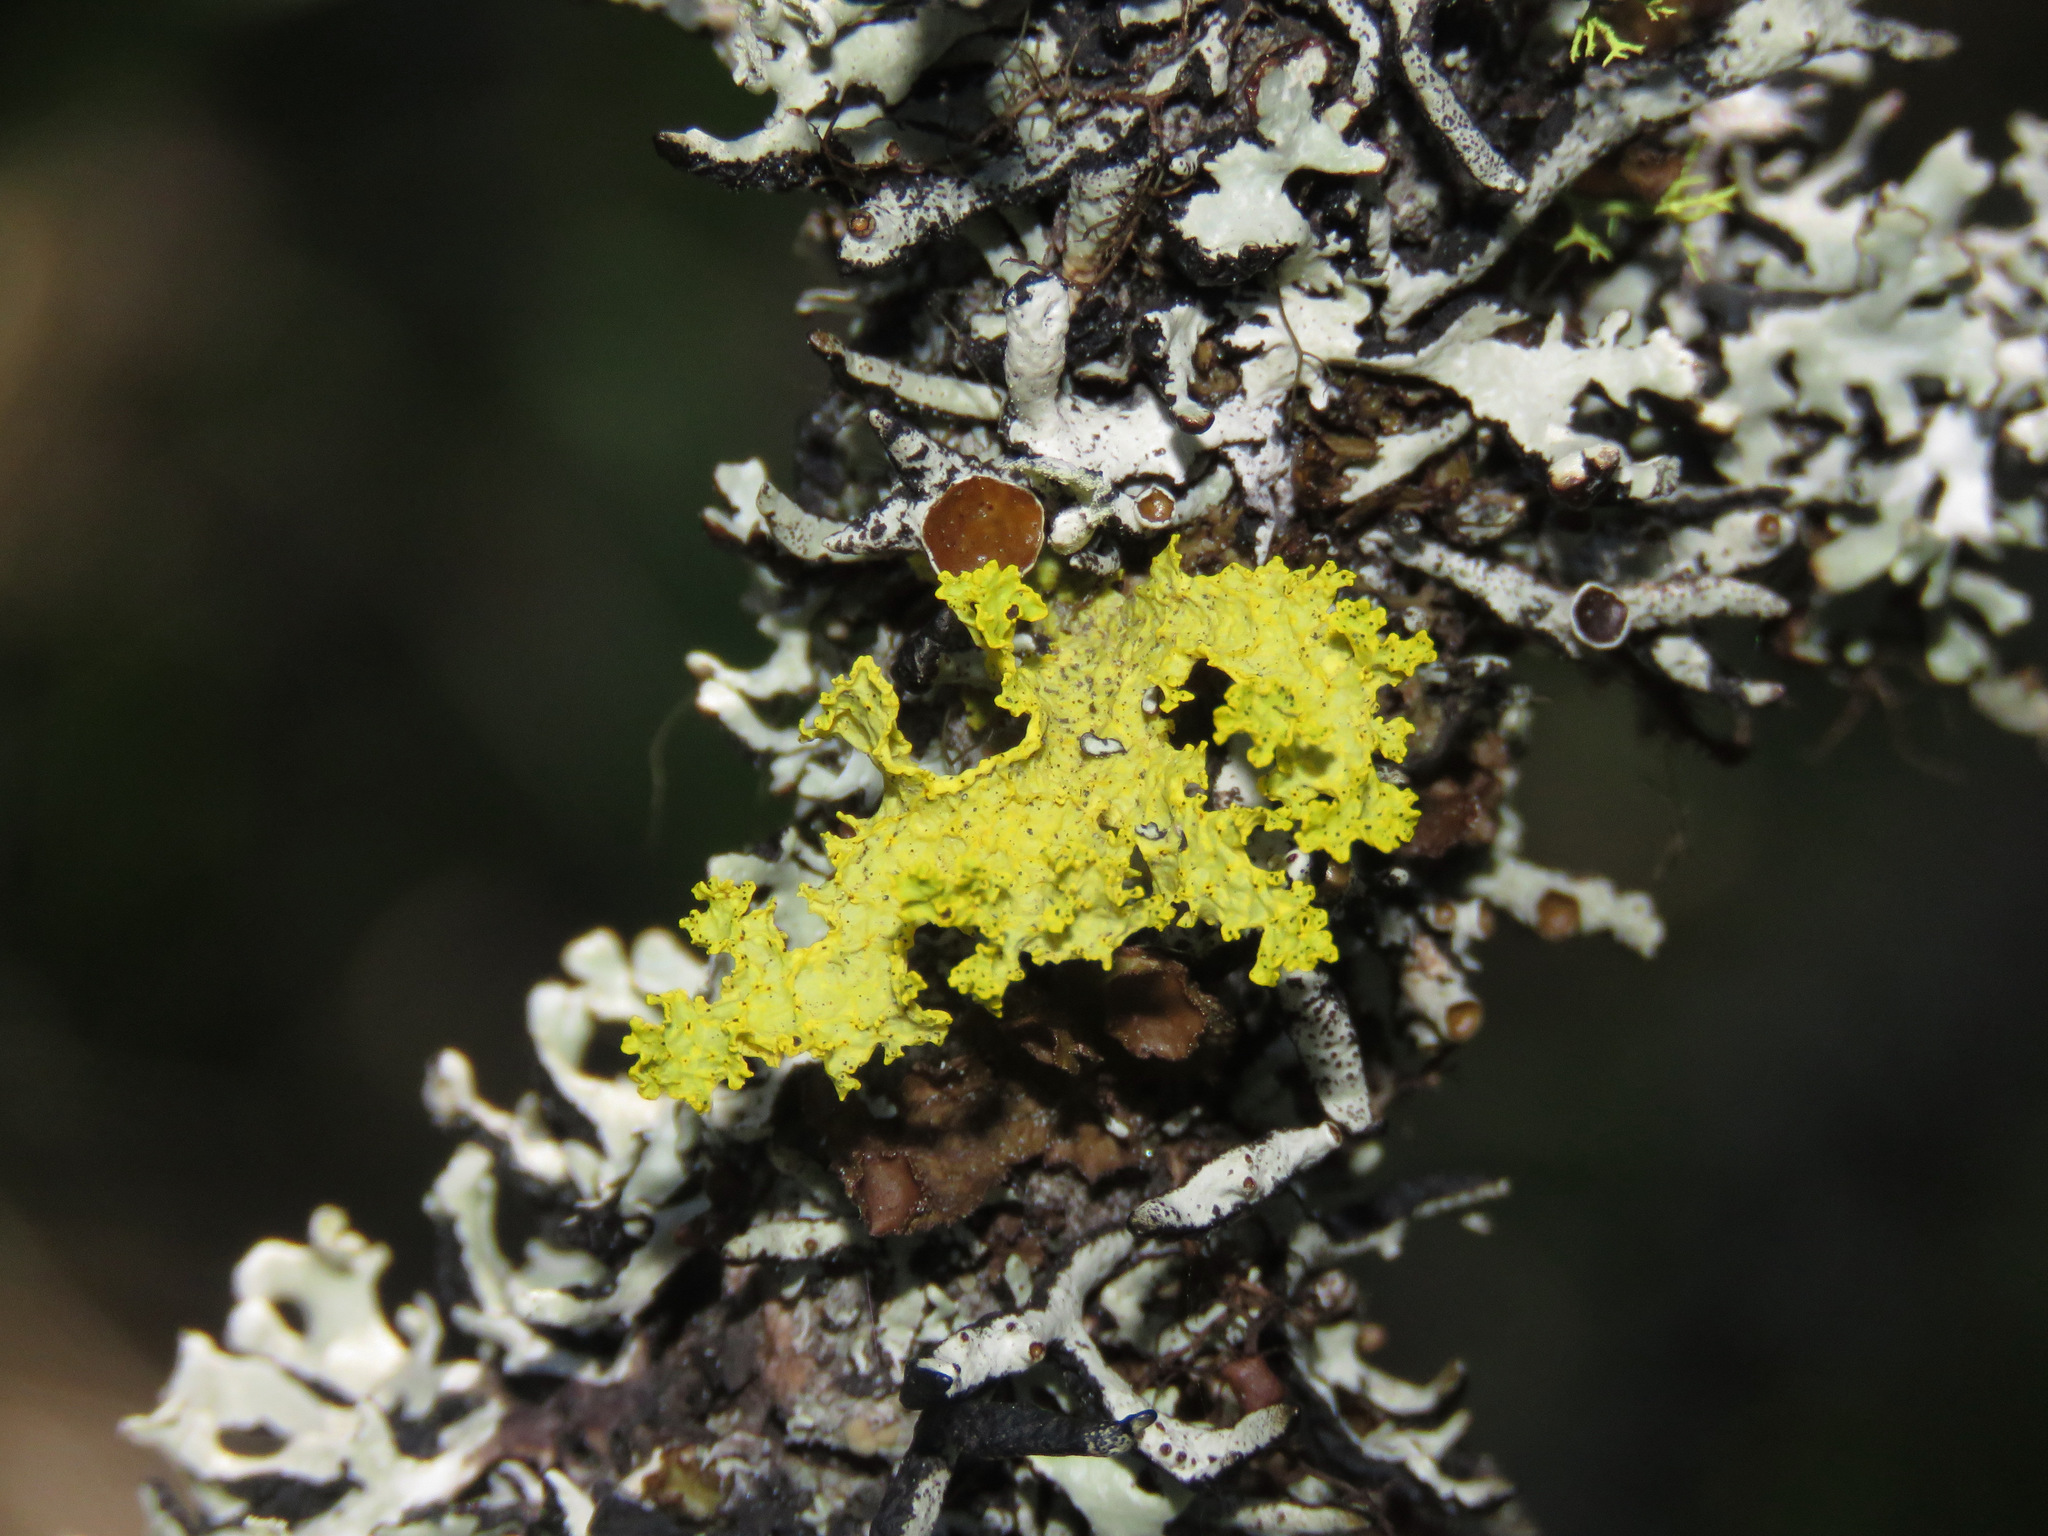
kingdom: Fungi
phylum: Ascomycota
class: Lecanoromycetes
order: Lecanorales
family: Parmeliaceae
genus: Vulpicida
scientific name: Vulpicida canadensis
